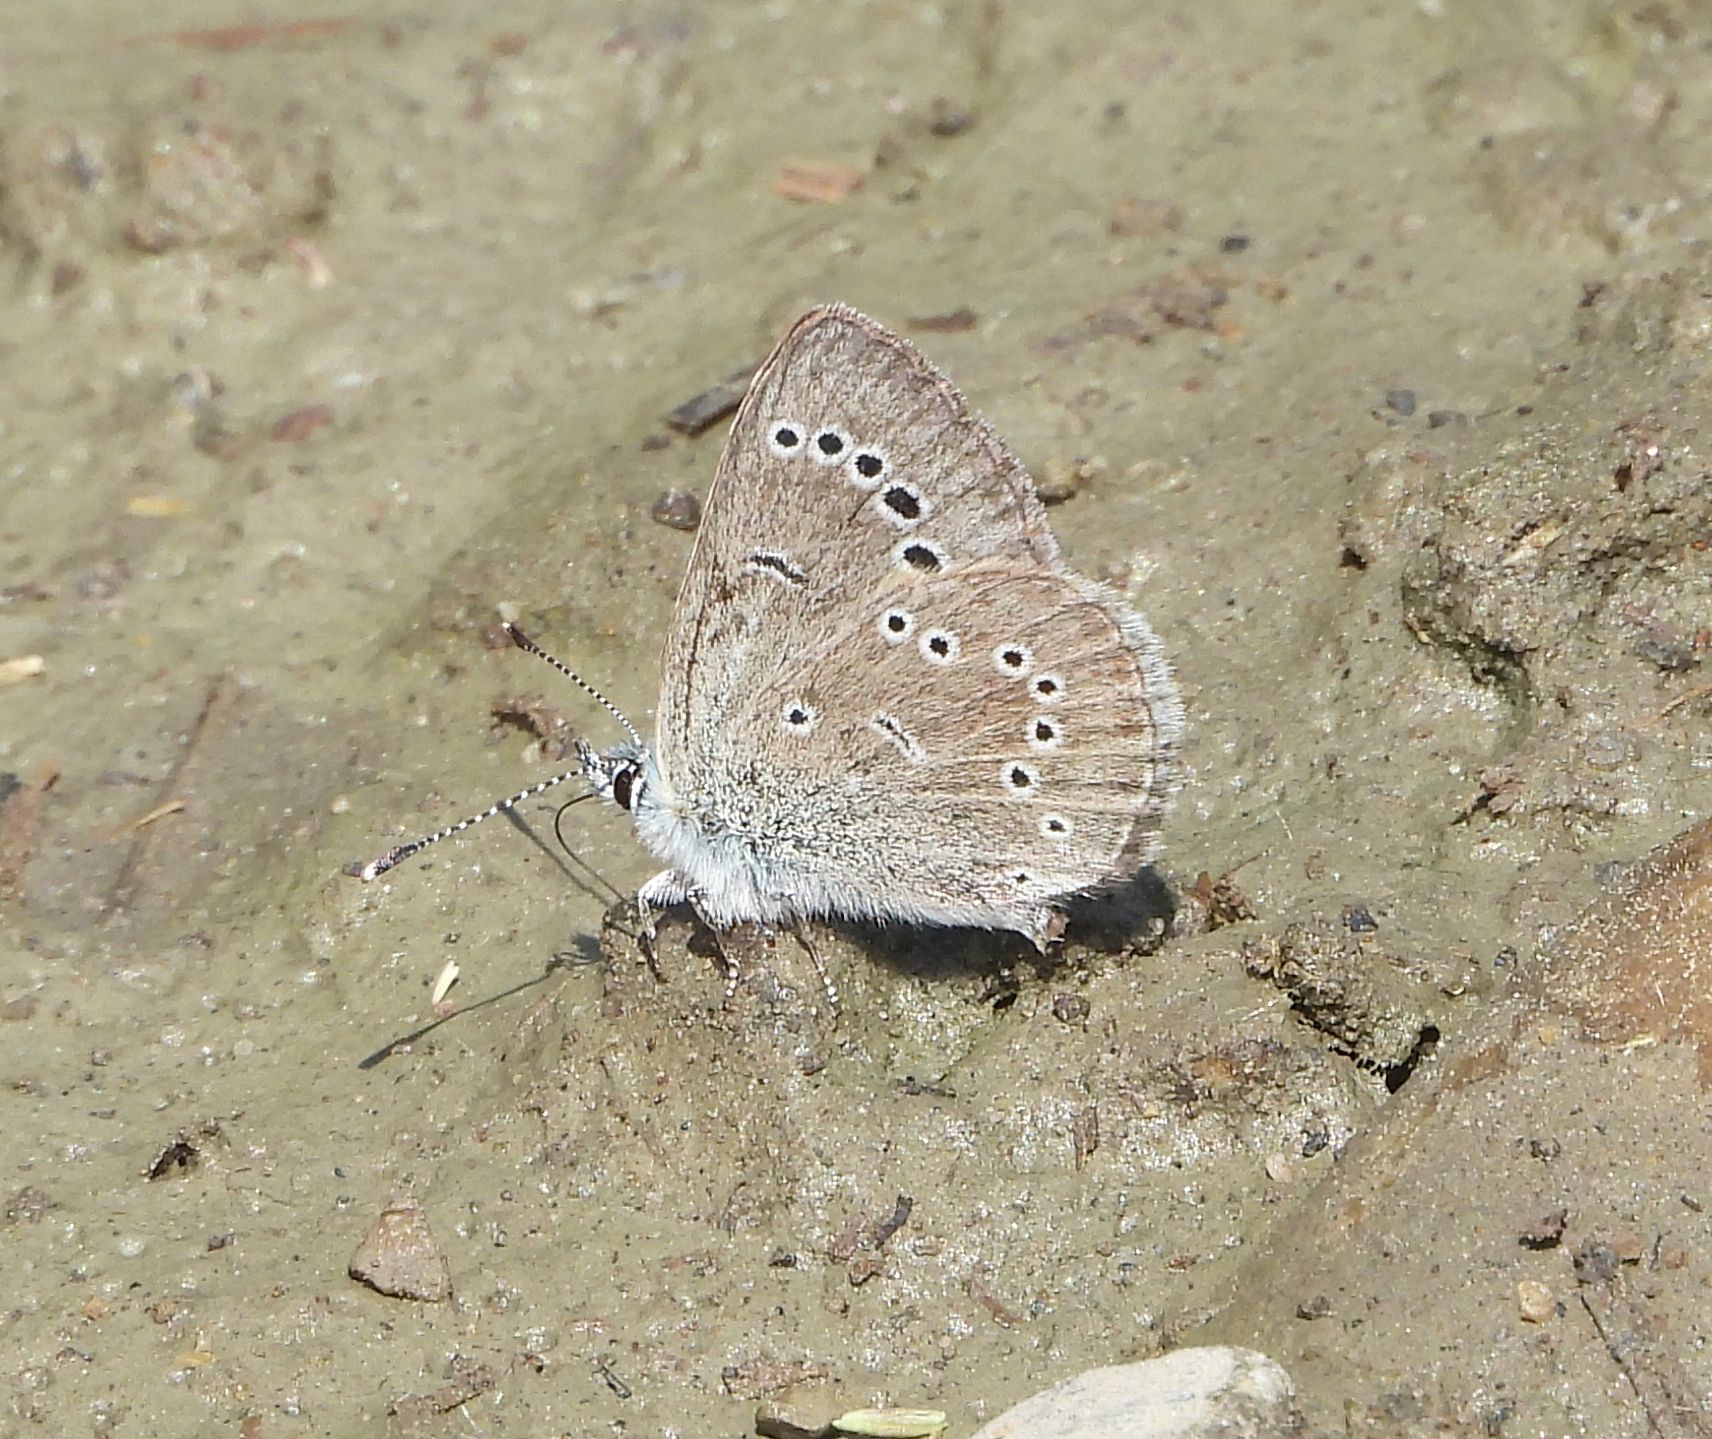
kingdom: Animalia
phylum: Arthropoda
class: Insecta
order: Lepidoptera
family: Lycaenidae
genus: Glaucopsyche
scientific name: Glaucopsyche lygdamus
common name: Silvery blue
